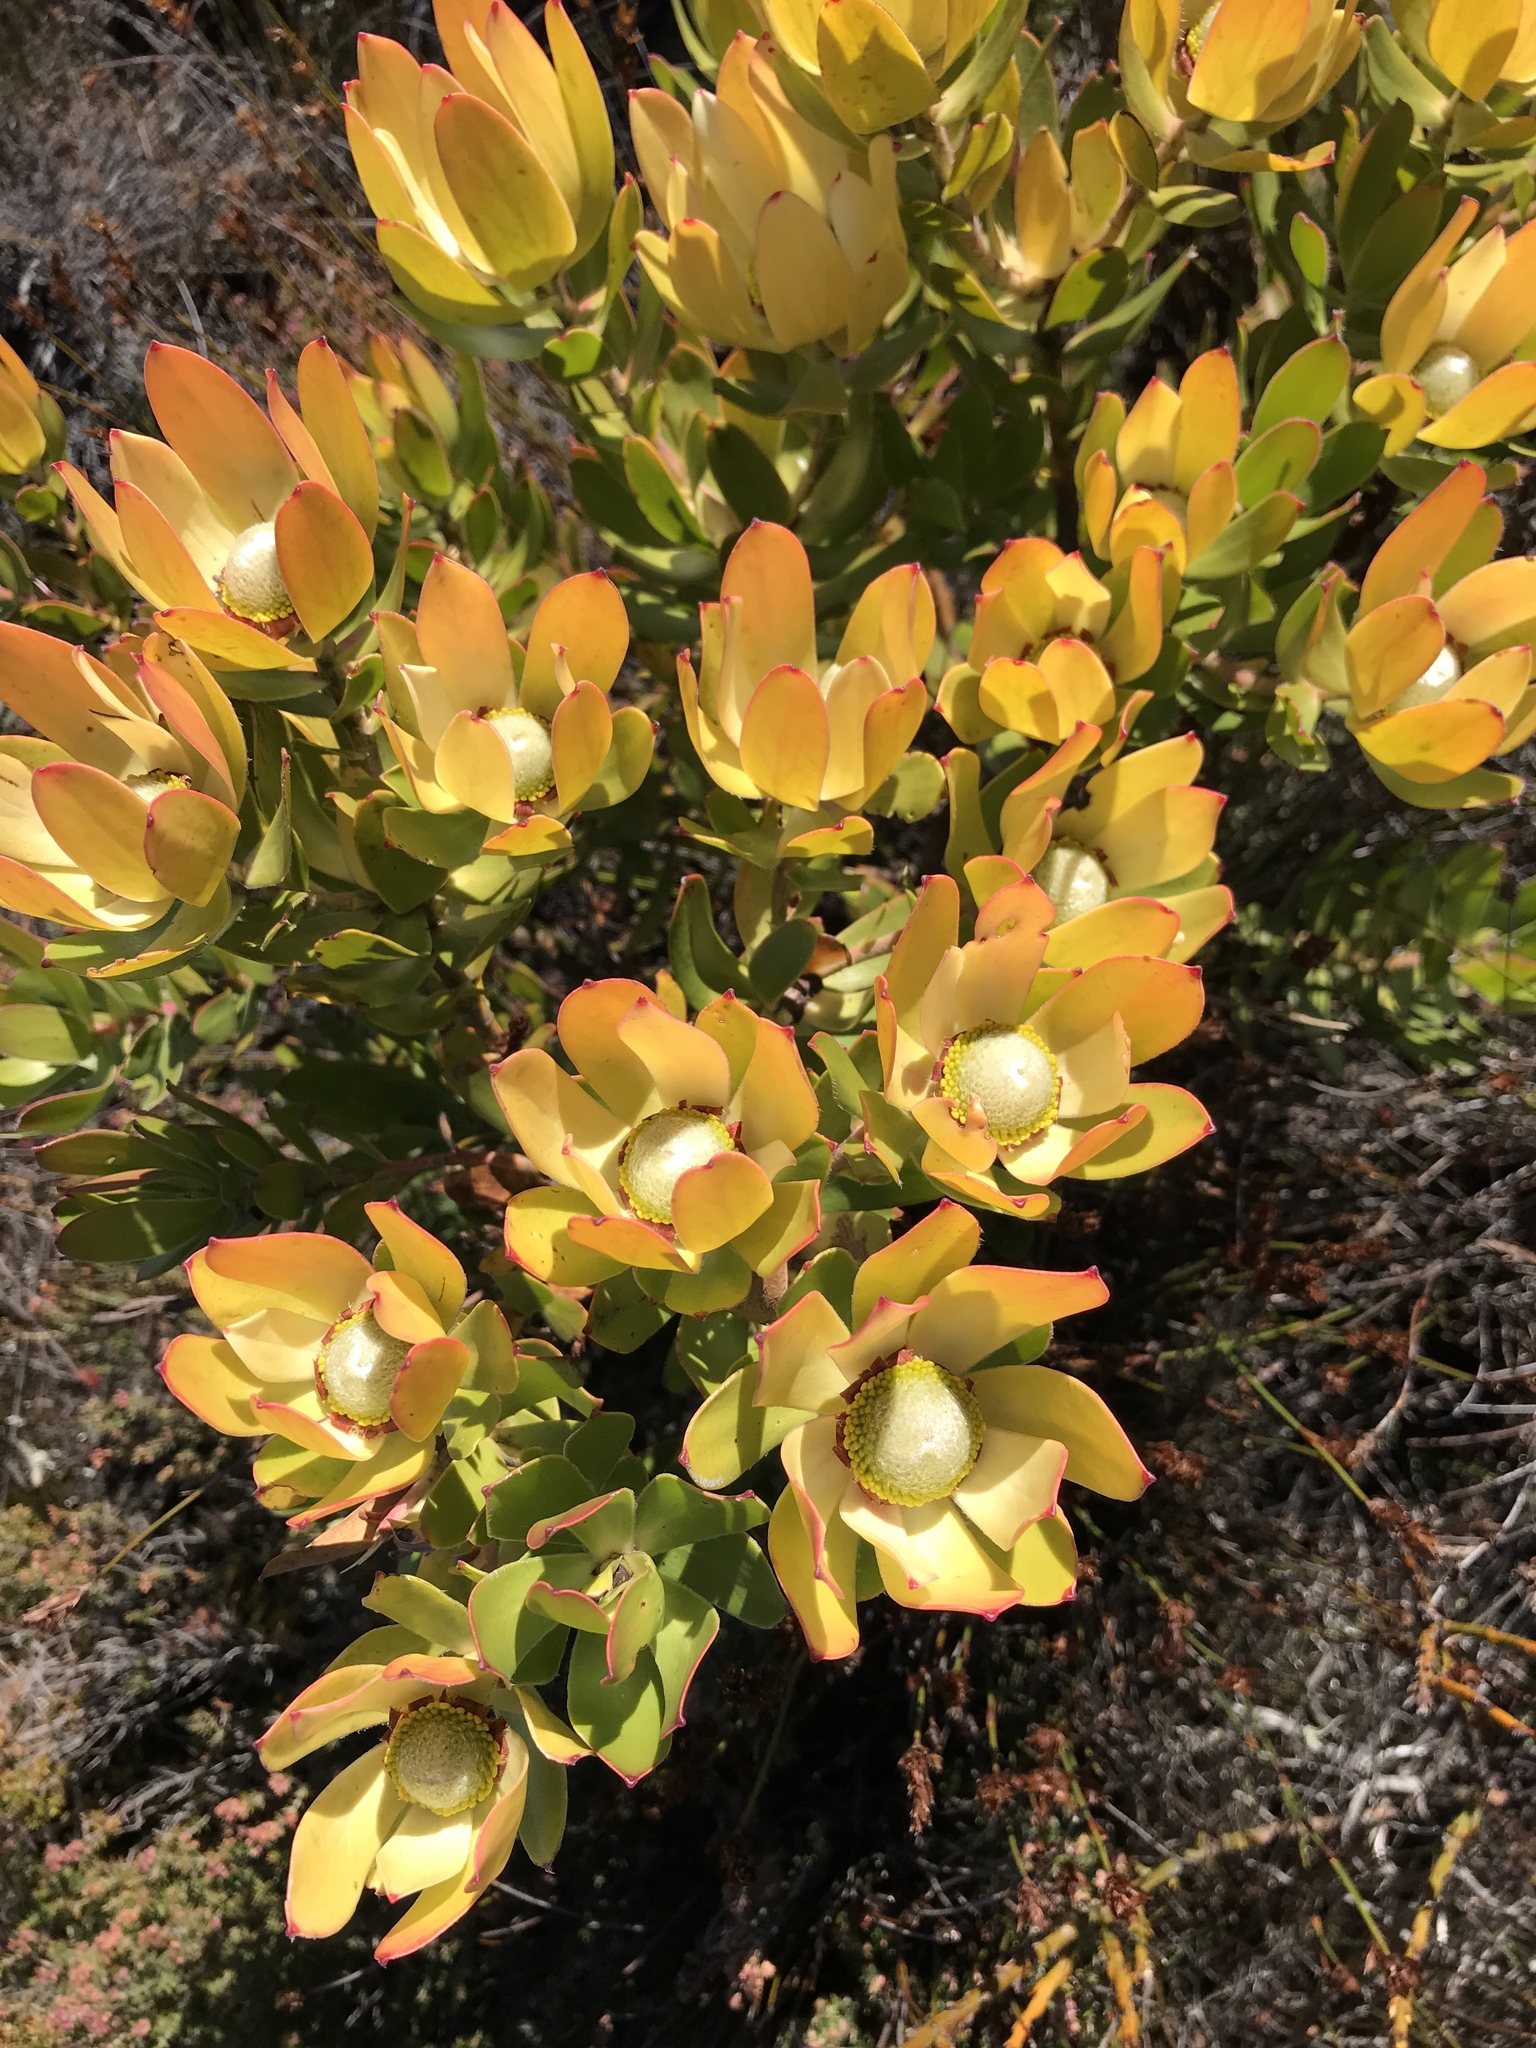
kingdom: Plantae
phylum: Tracheophyta
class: Magnoliopsida
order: Proteales
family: Proteaceae
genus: Leucadendron
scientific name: Leucadendron strobilinum
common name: Mountain rose
